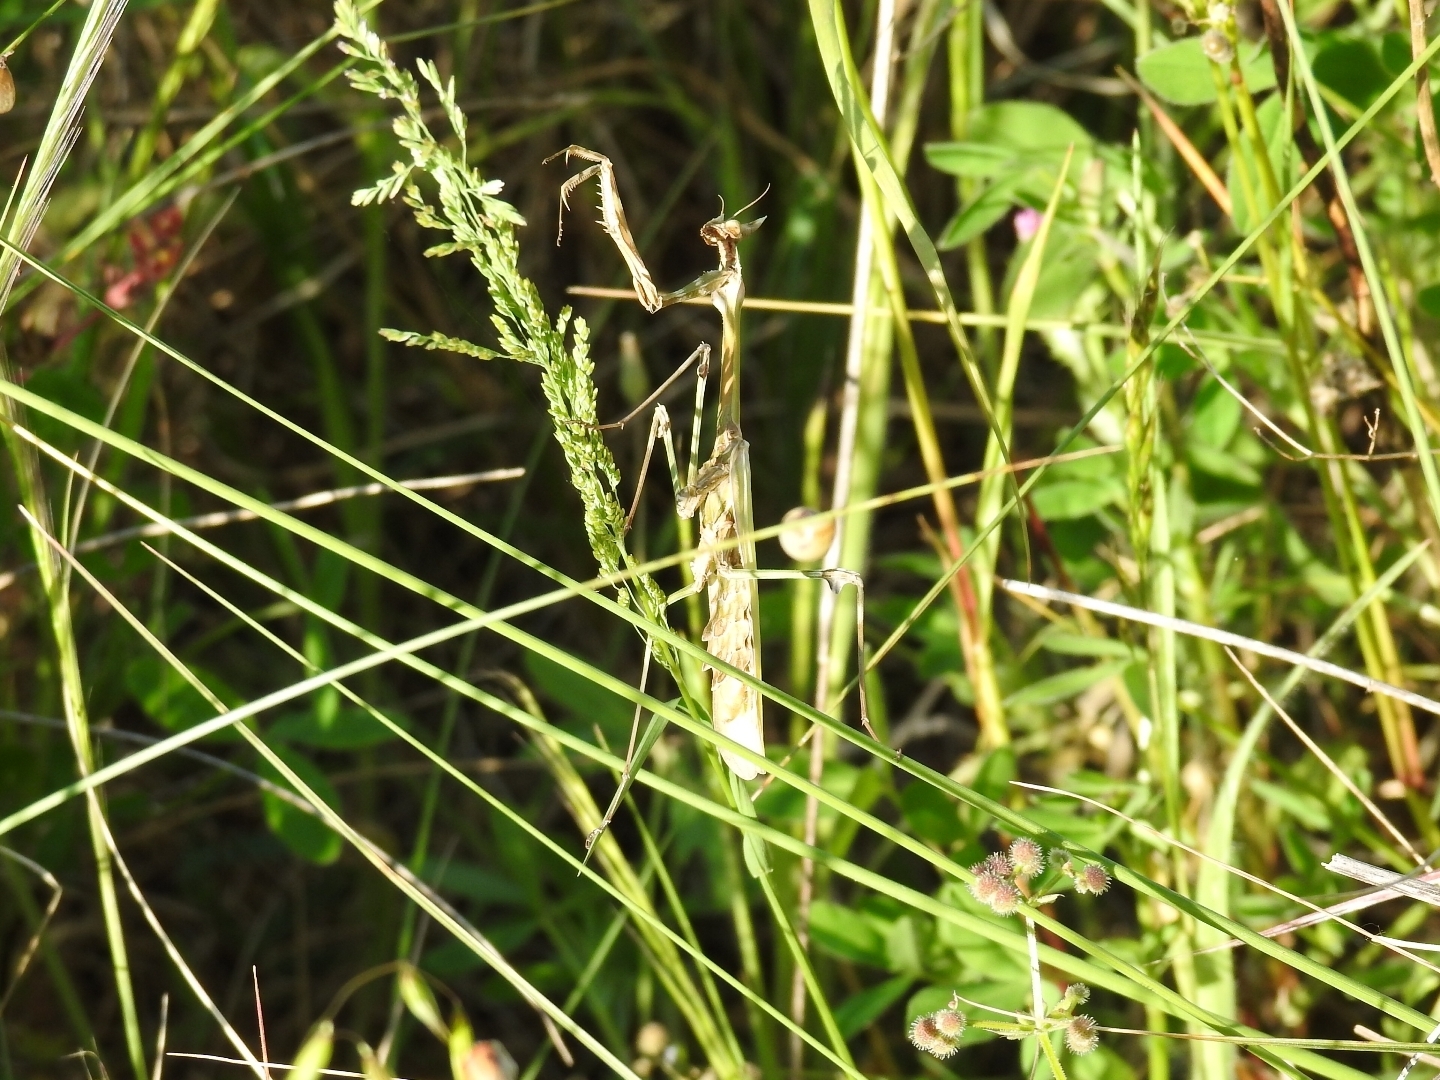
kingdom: Animalia
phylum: Arthropoda
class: Insecta
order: Mantodea
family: Empusidae
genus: Empusa
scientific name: Empusa fasciata
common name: Devil's mare
